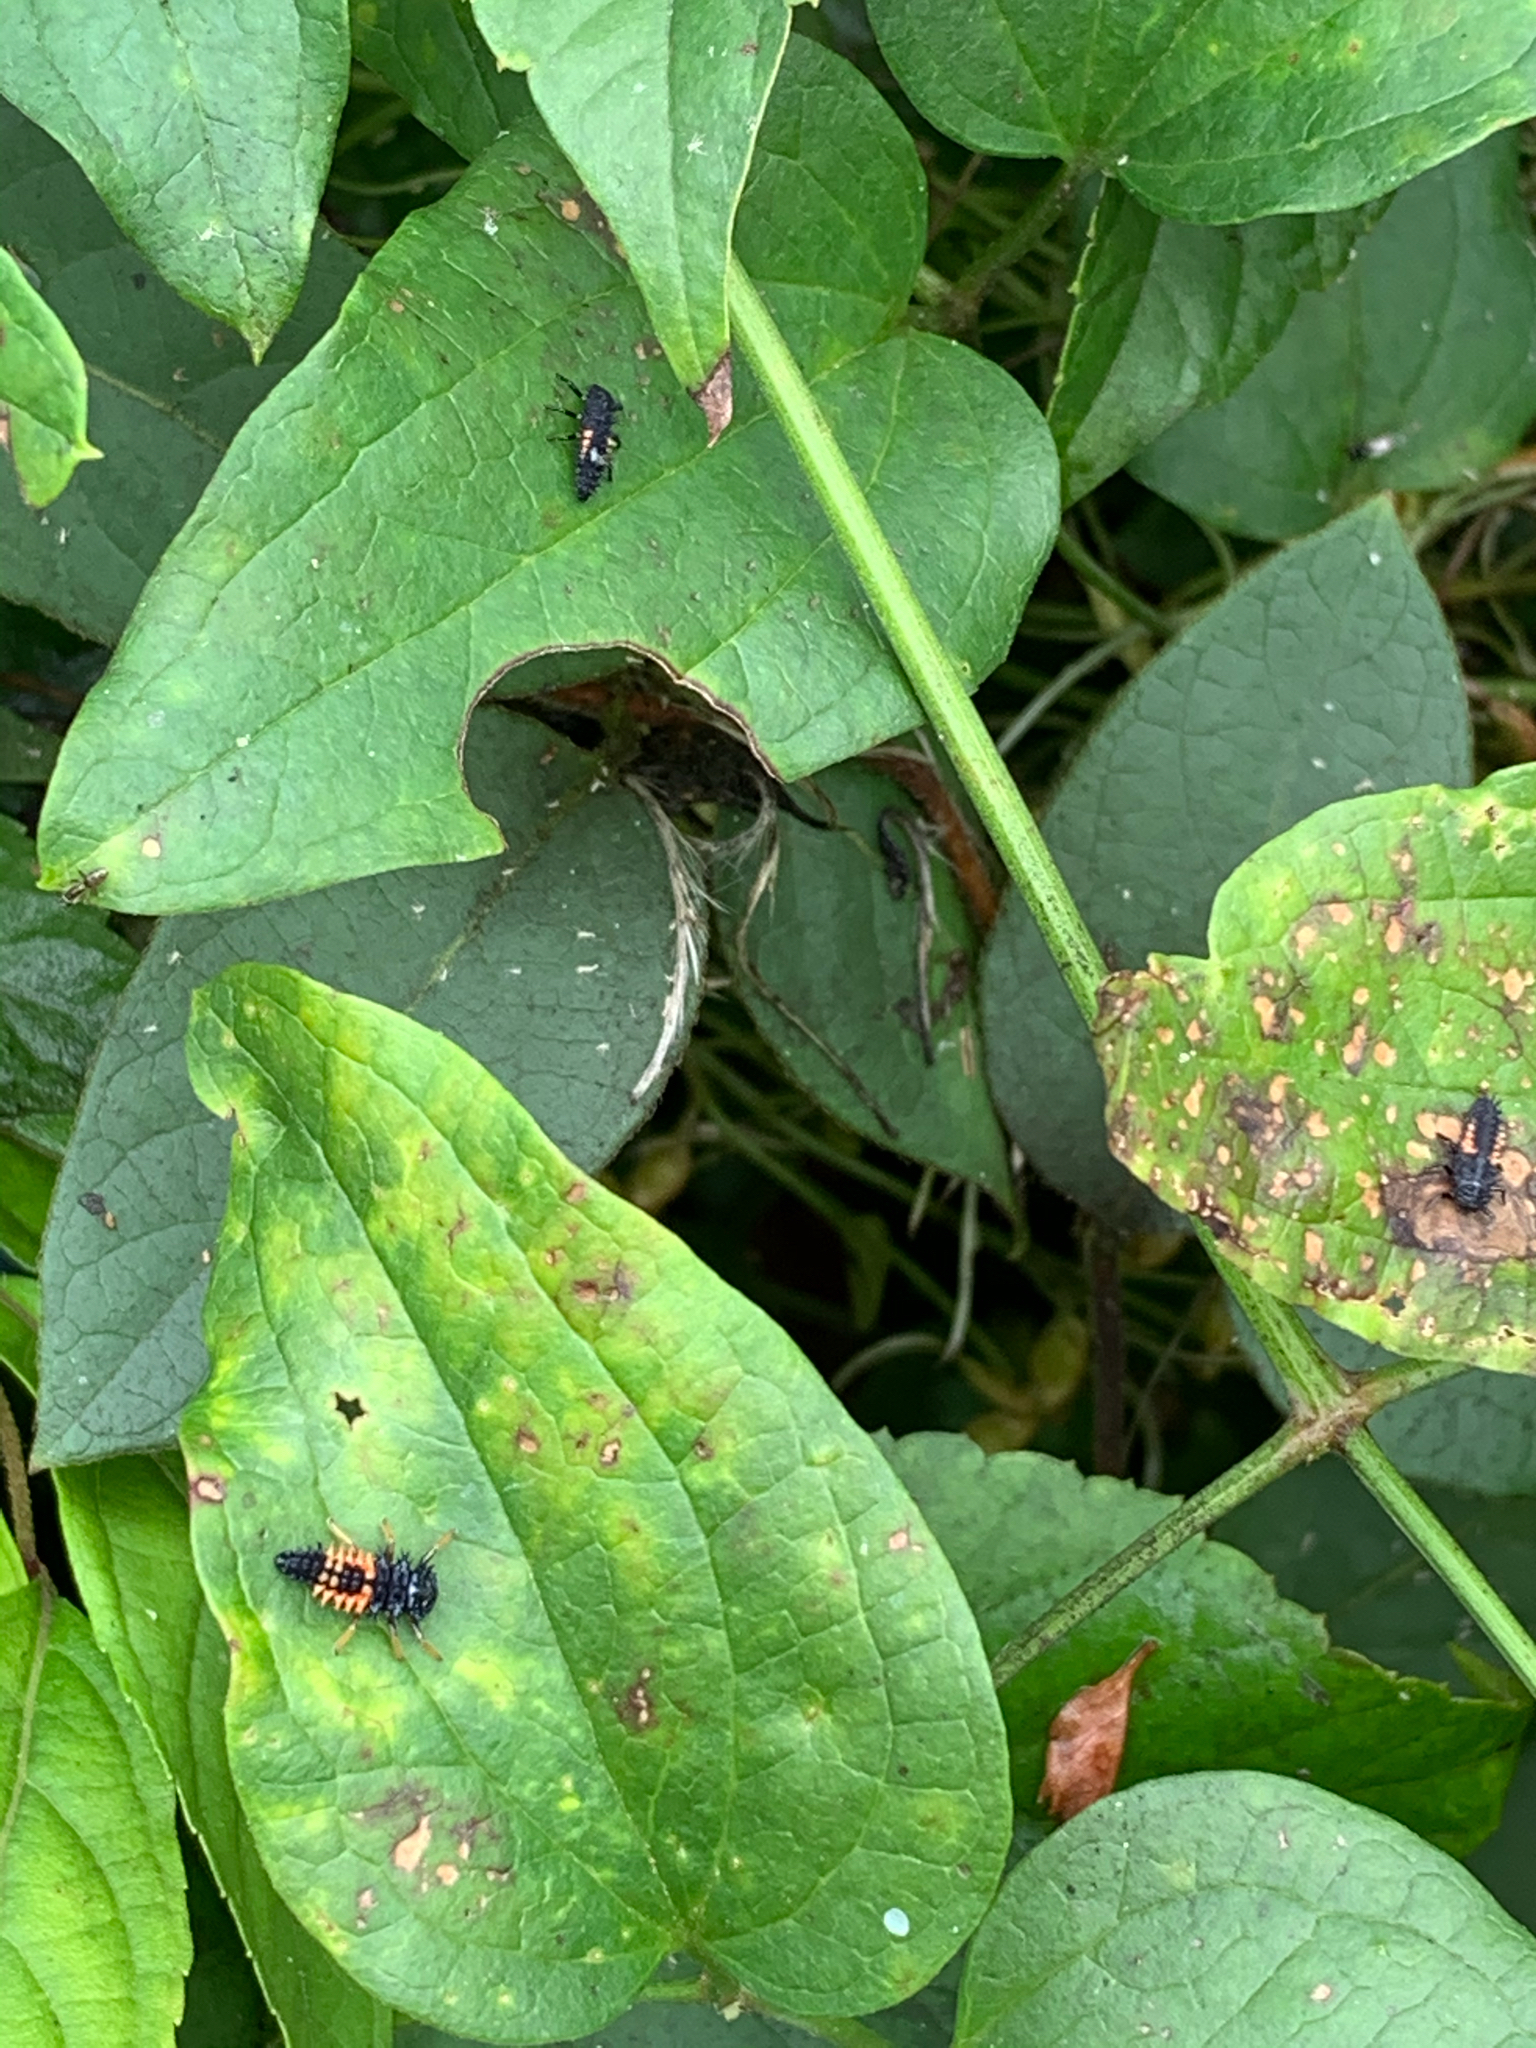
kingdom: Animalia
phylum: Arthropoda
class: Insecta
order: Coleoptera
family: Coccinellidae
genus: Harmonia
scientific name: Harmonia axyridis
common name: Harlequin ladybird
